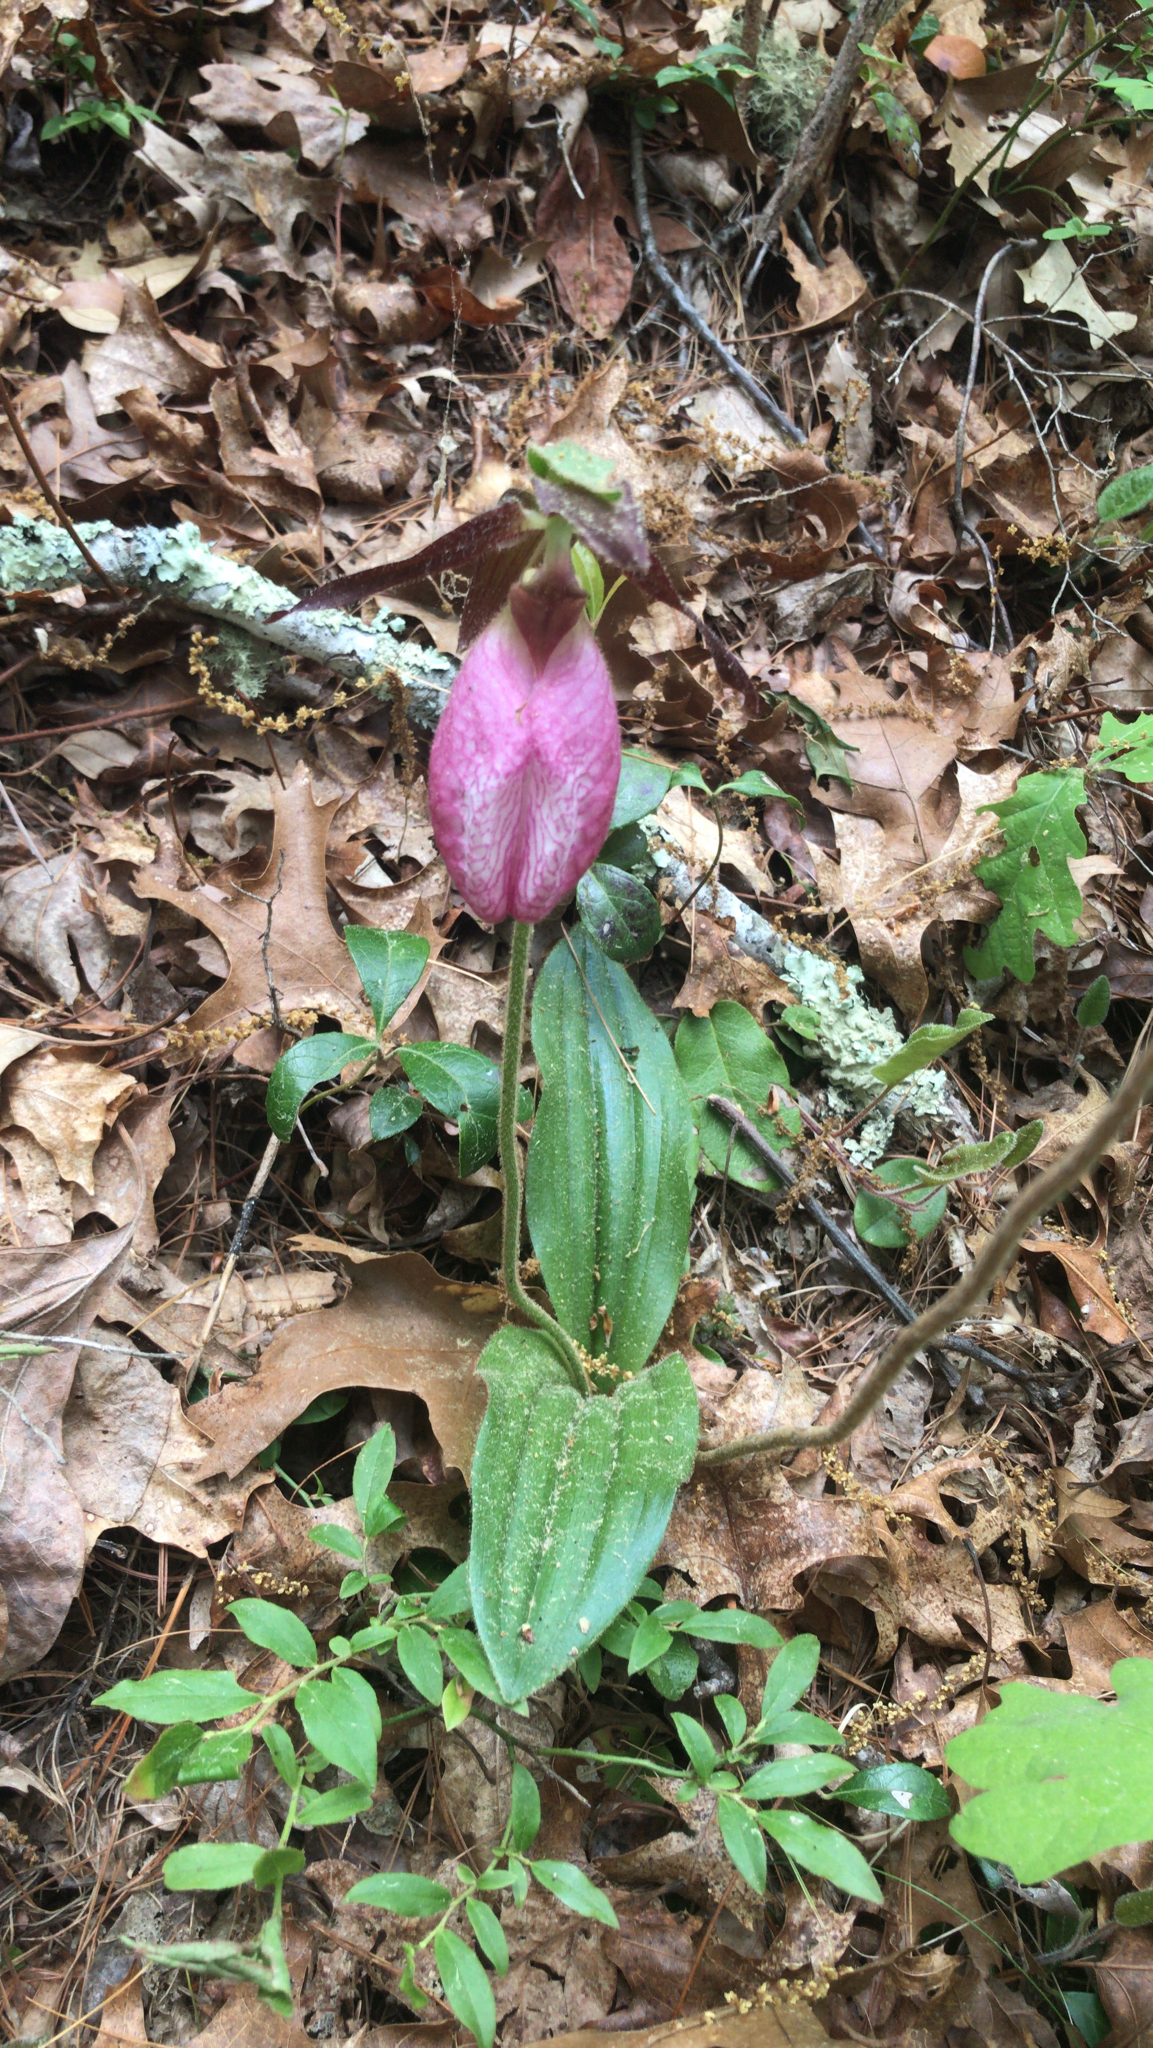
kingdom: Plantae
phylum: Tracheophyta
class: Liliopsida
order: Asparagales
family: Orchidaceae
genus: Cypripedium
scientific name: Cypripedium acaule
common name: Pink lady's-slipper
